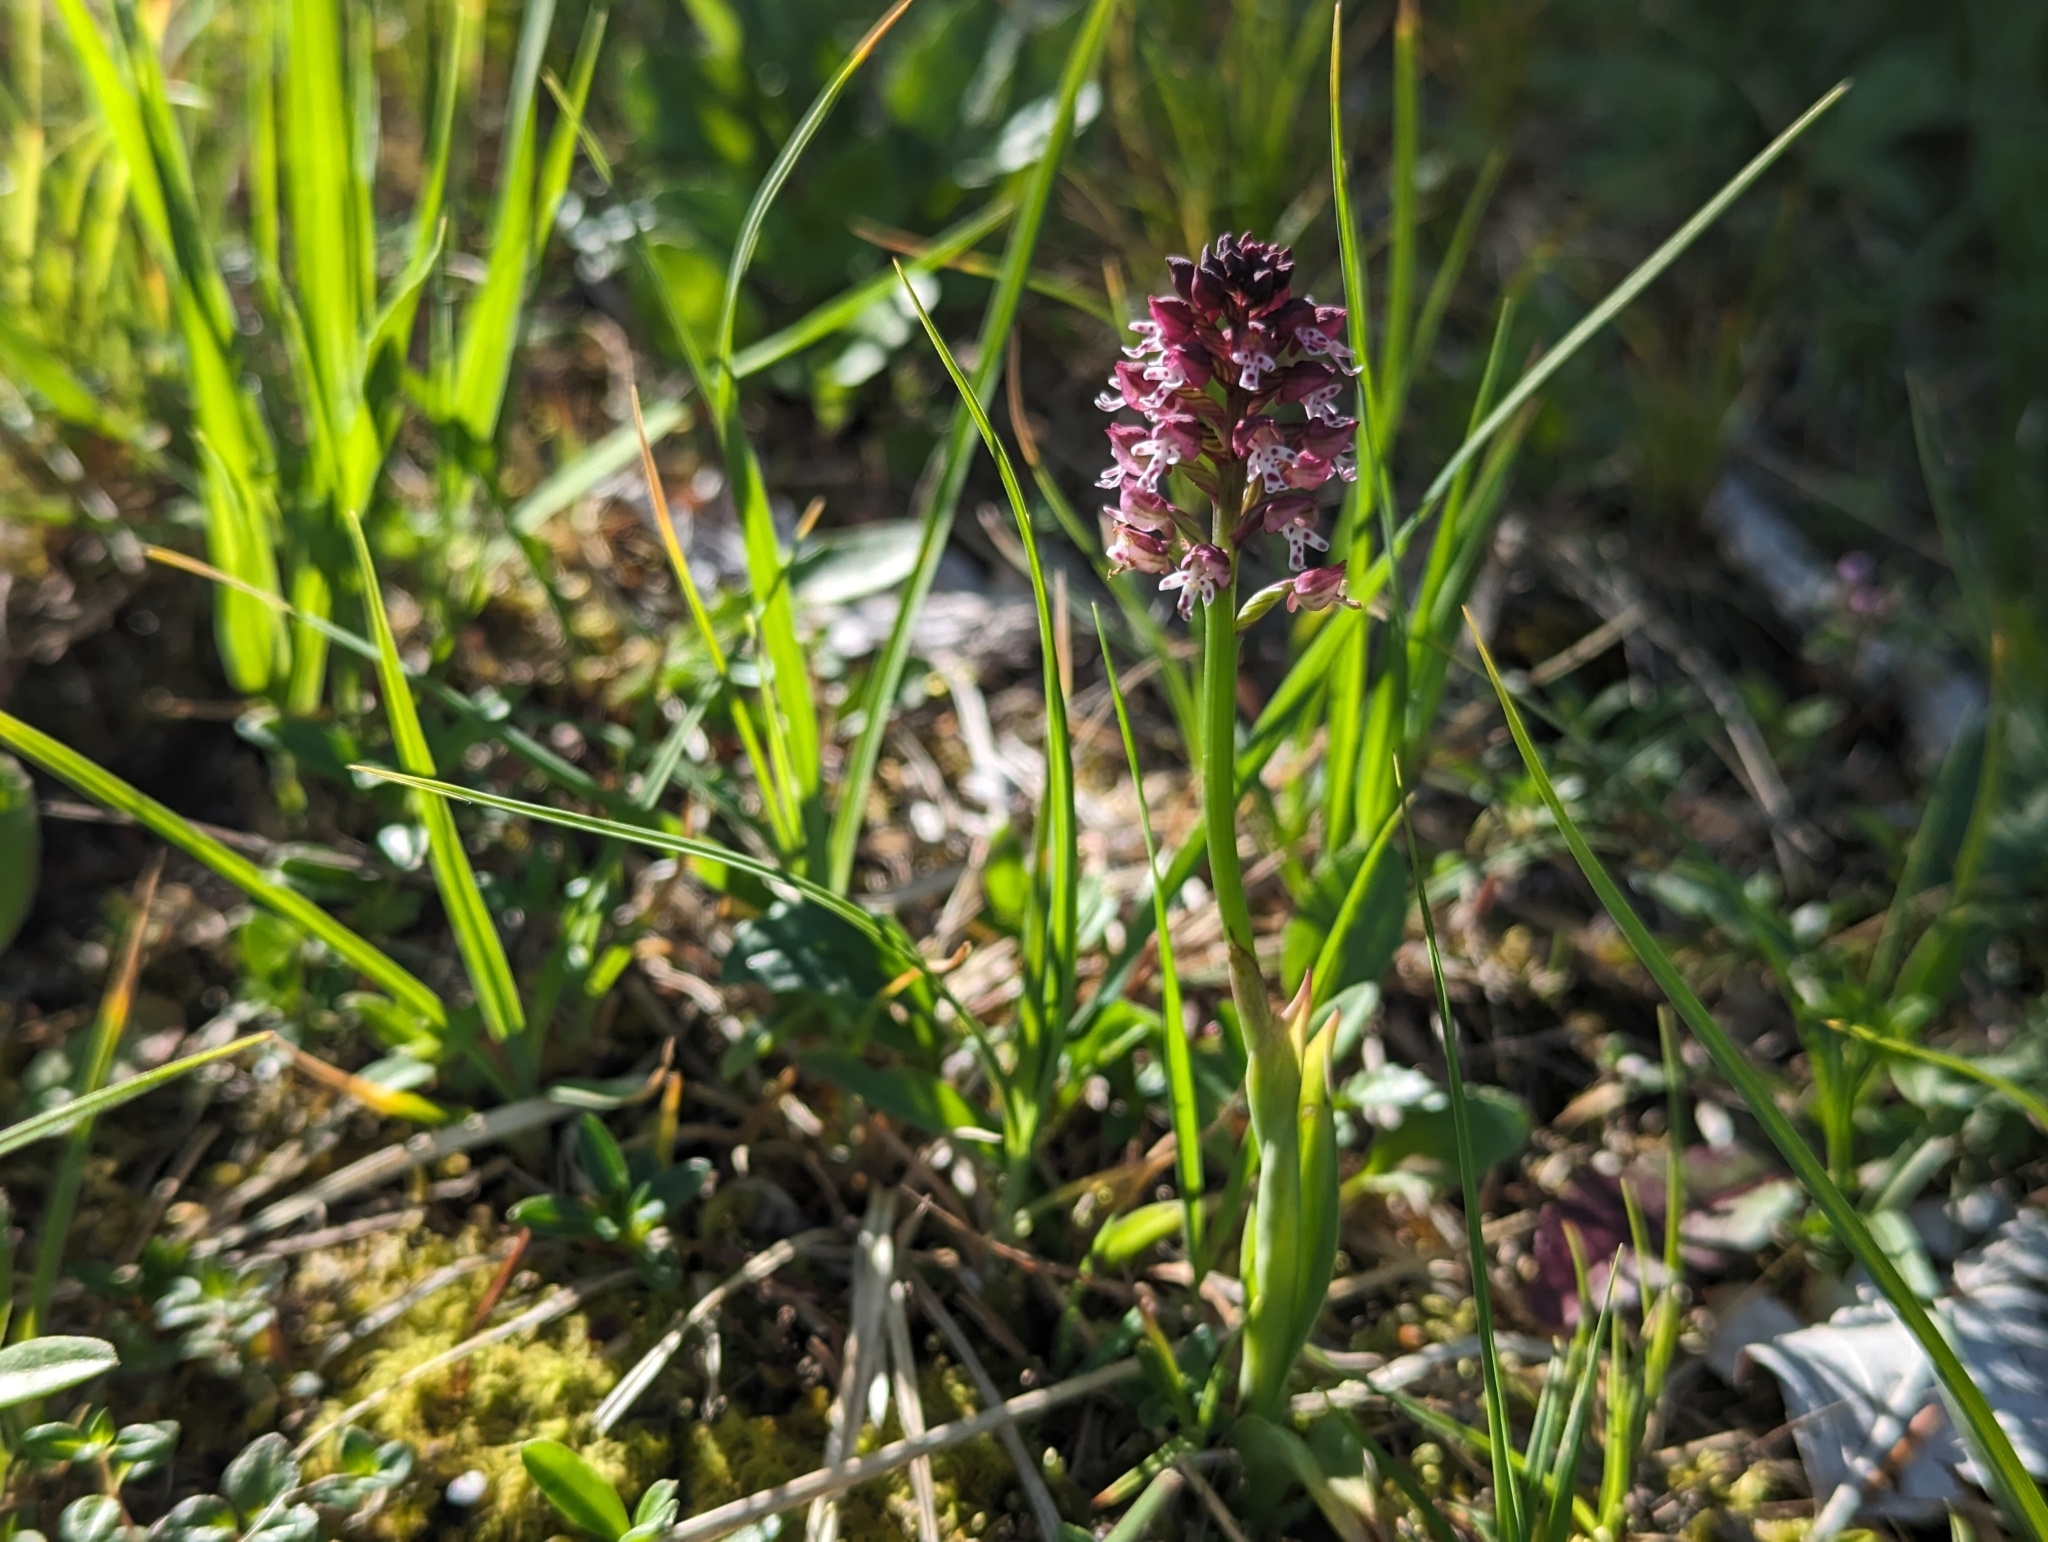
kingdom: Plantae
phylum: Tracheophyta
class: Liliopsida
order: Asparagales
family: Orchidaceae
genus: Neotinea
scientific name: Neotinea ustulata
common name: Burnt orchid
